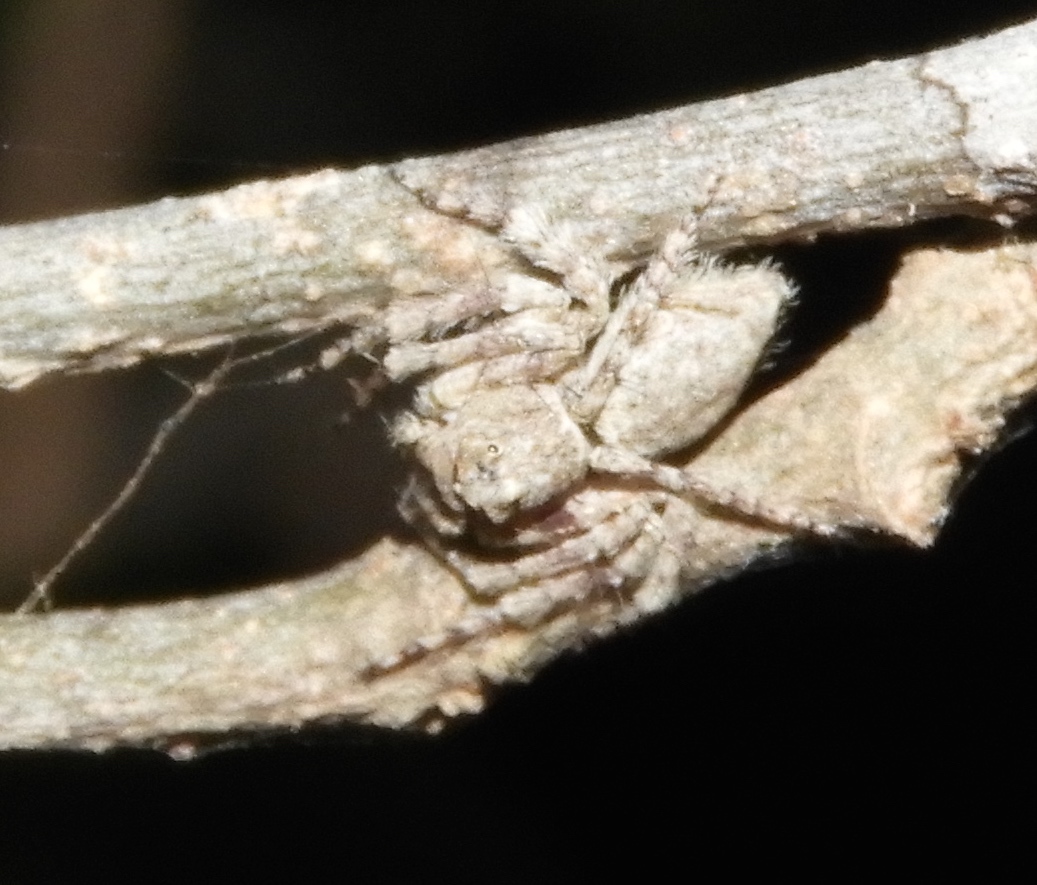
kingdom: Animalia
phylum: Arthropoda
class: Arachnida
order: Araneae
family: Oxyopidae
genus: Hamataliwa
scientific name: Hamataliwa
